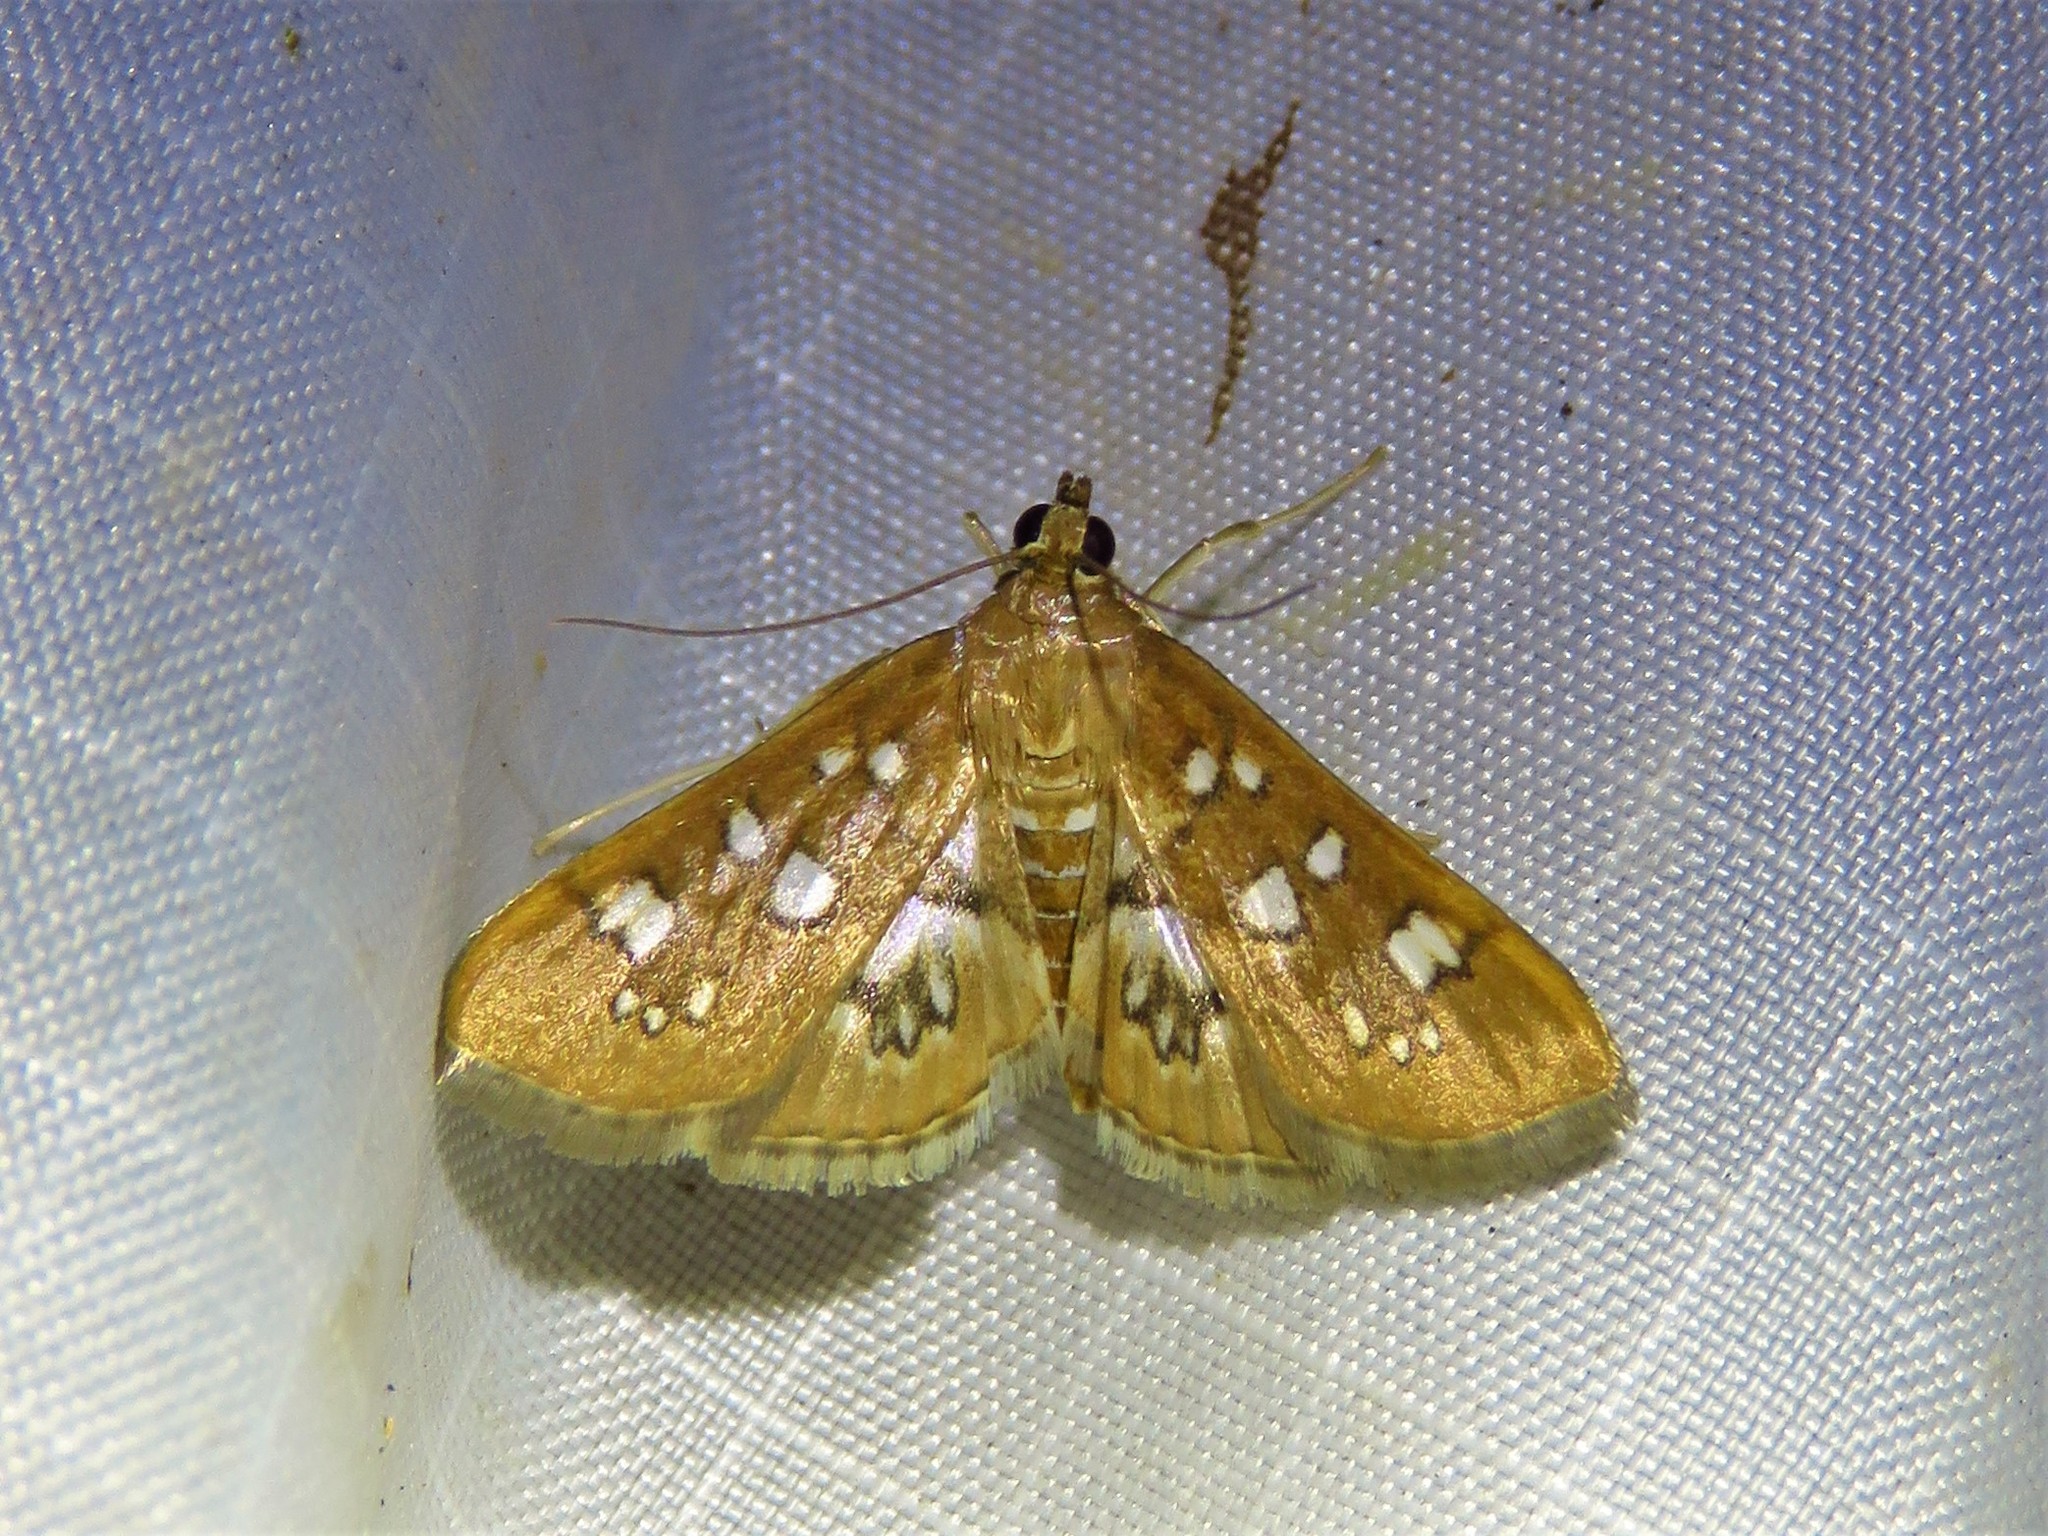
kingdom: Animalia
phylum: Arthropoda
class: Insecta
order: Lepidoptera
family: Crambidae
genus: Samea
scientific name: Samea baccatalis
